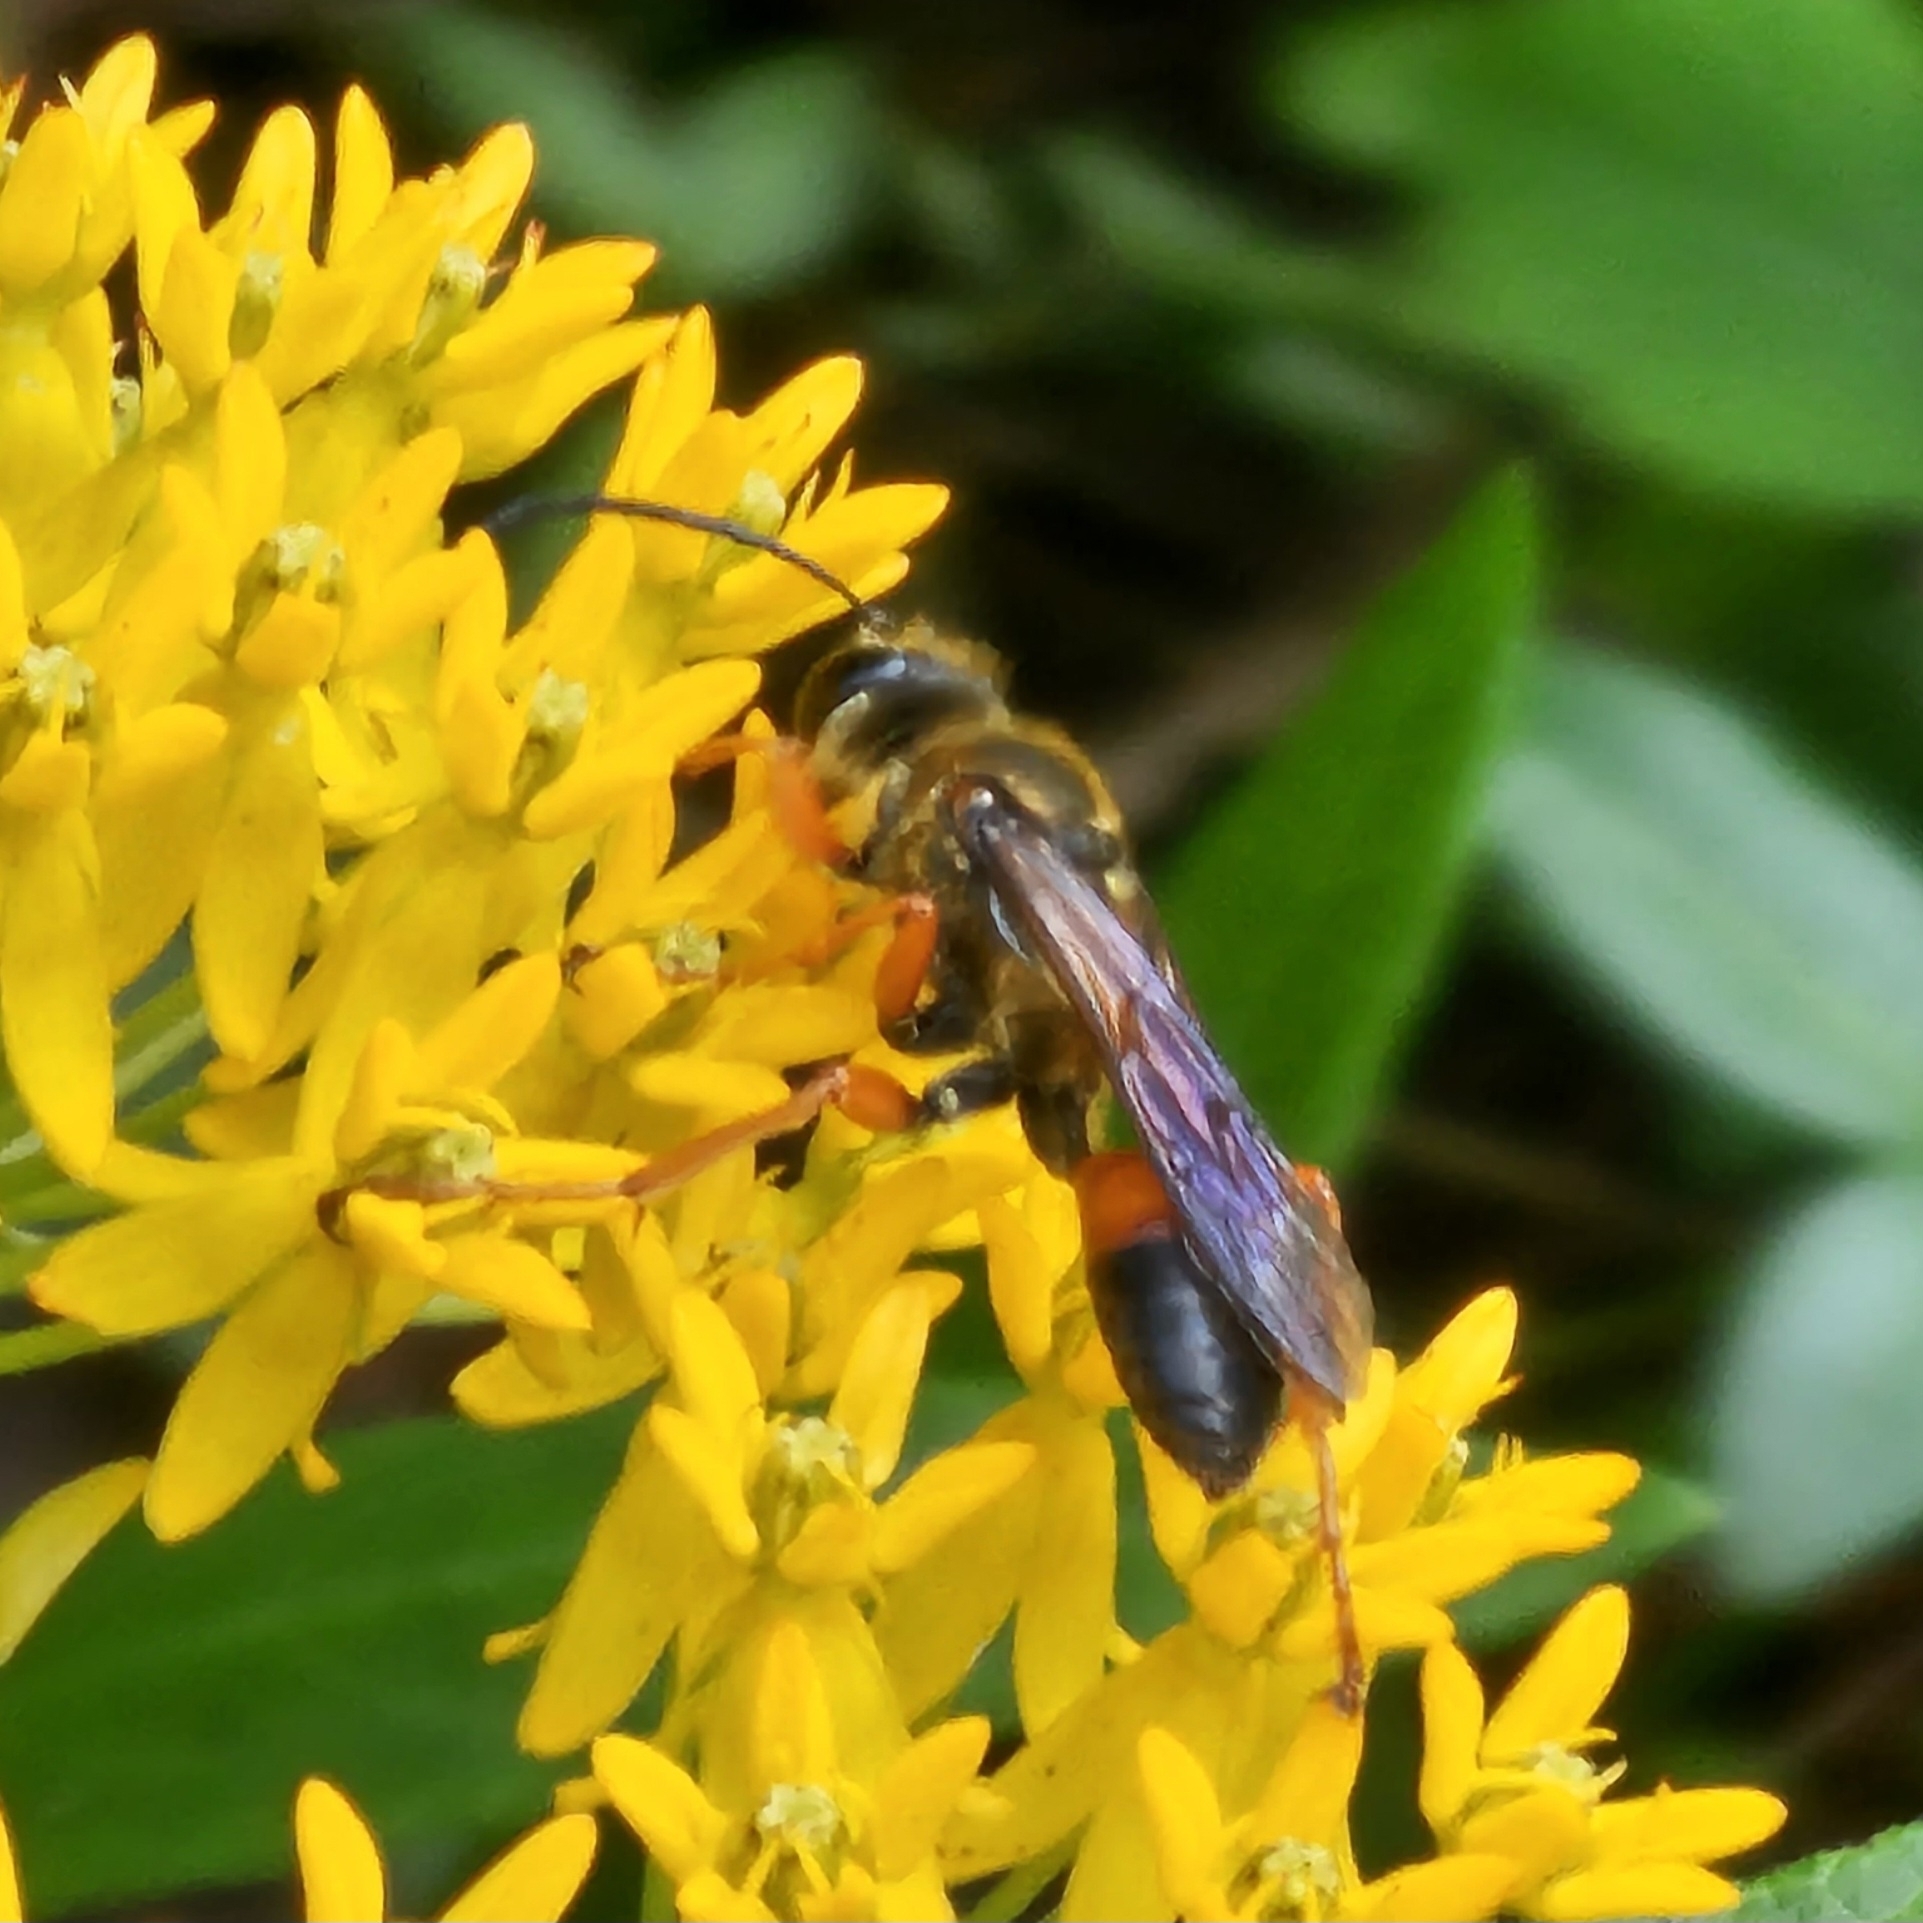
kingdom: Animalia
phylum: Arthropoda
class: Insecta
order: Hymenoptera
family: Sphecidae
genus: Sphex
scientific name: Sphex ichneumoneus
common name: Great golden digger wasp
